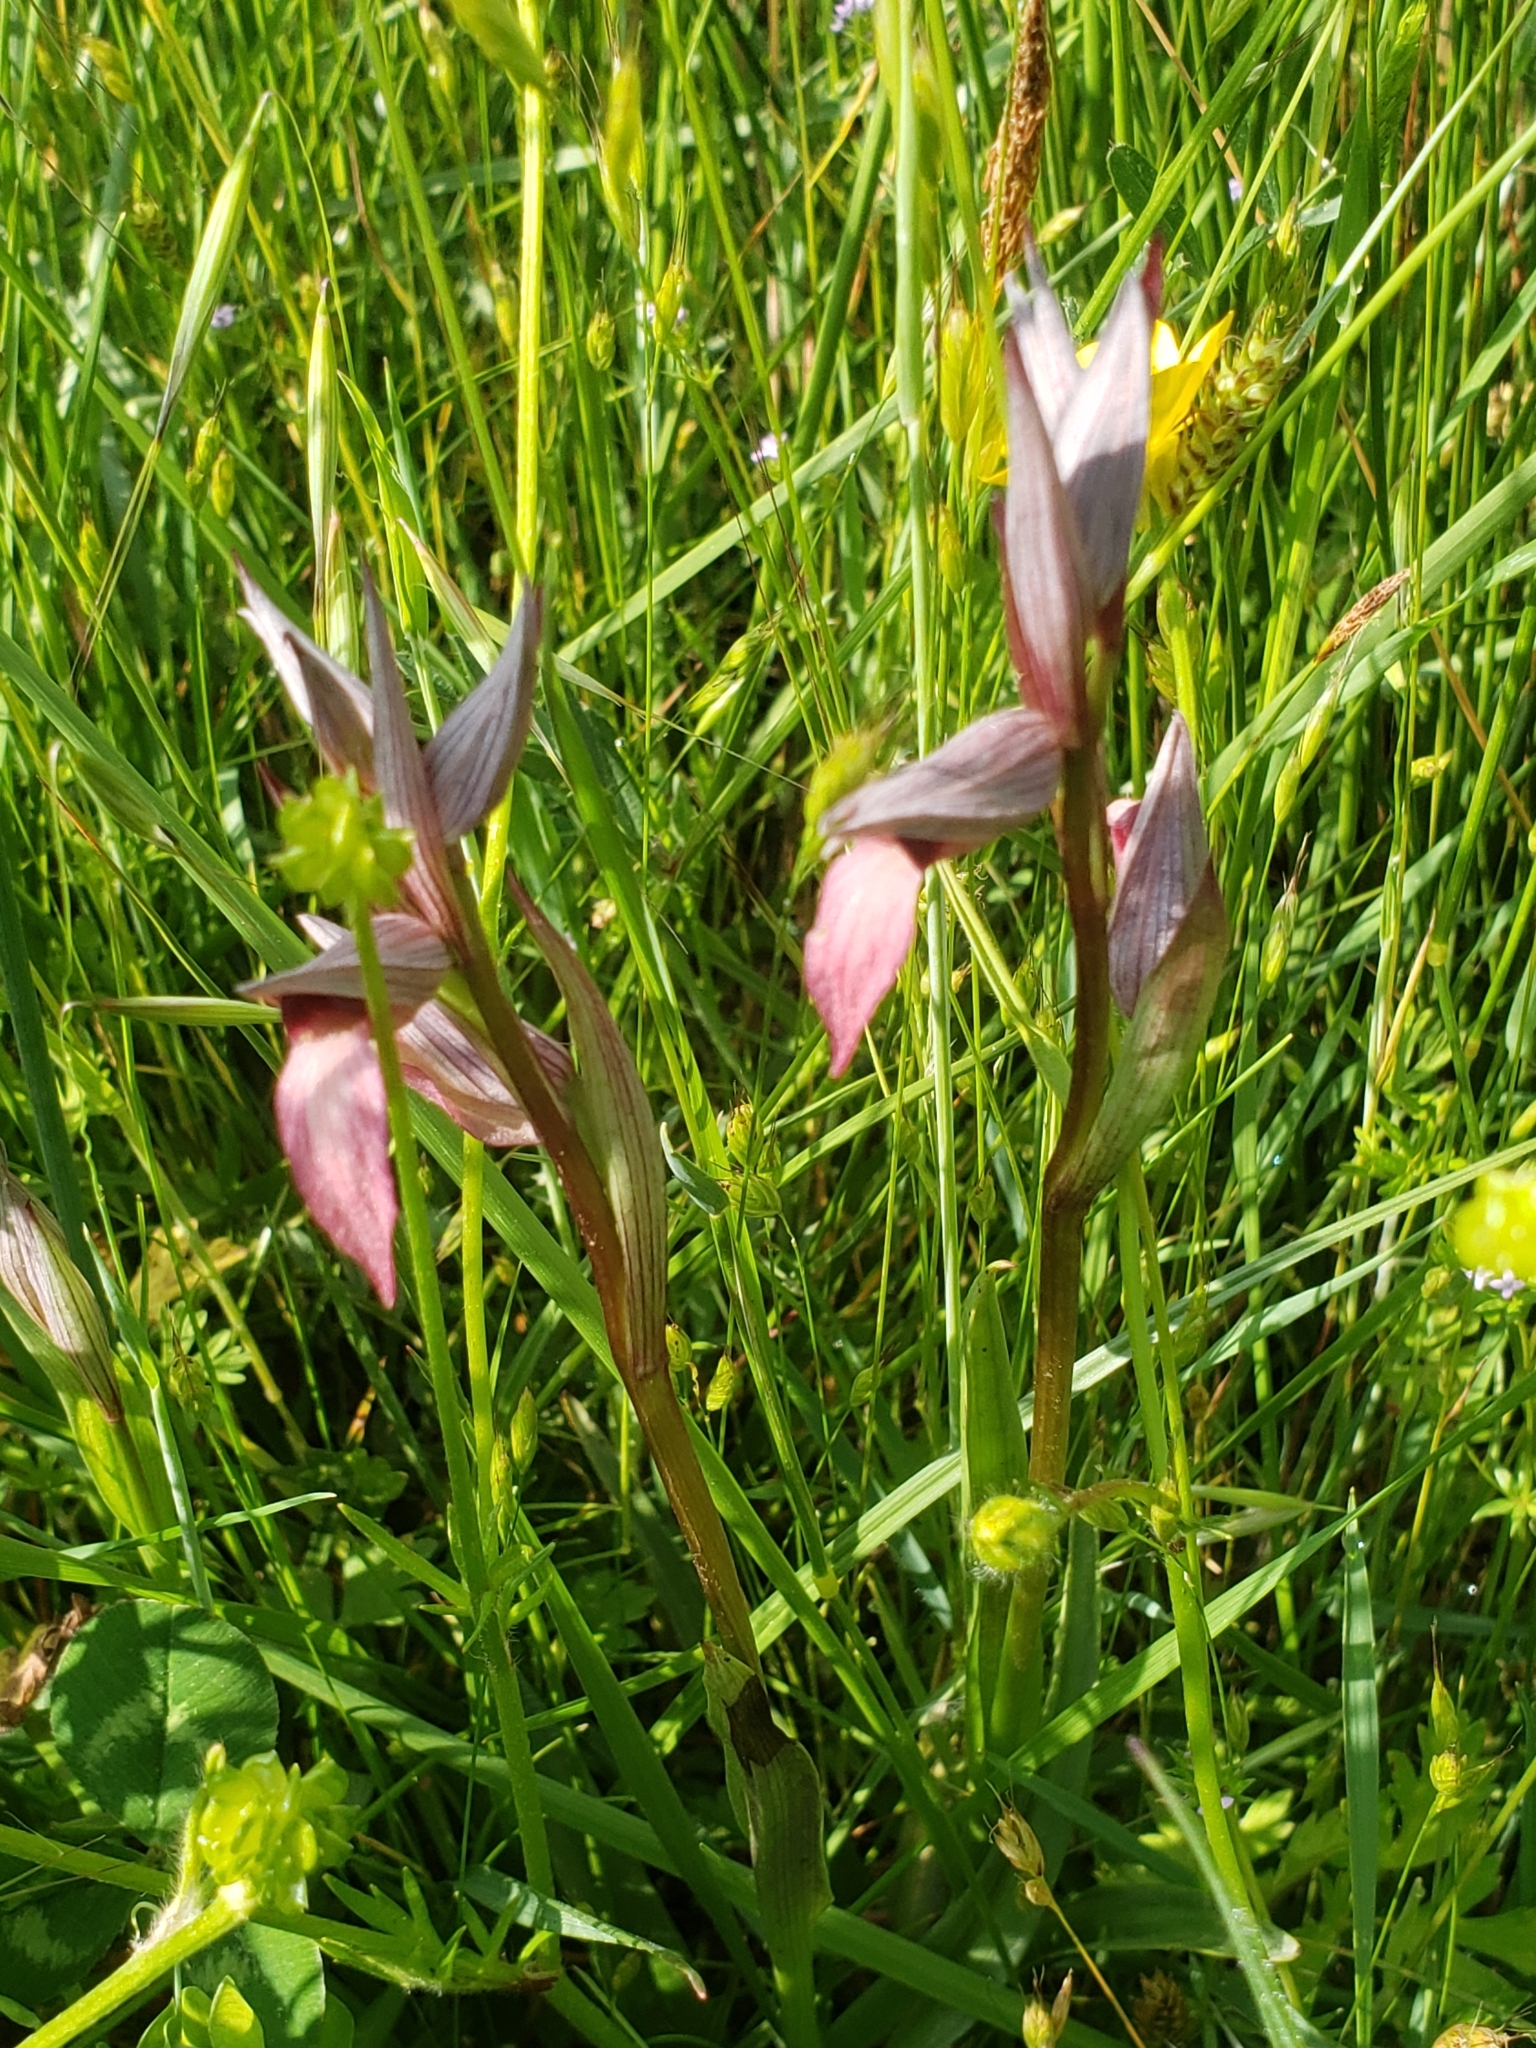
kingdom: Plantae
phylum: Tracheophyta
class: Liliopsida
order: Asparagales
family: Orchidaceae
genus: Serapias
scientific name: Serapias lingua
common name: Tongue-orchid
